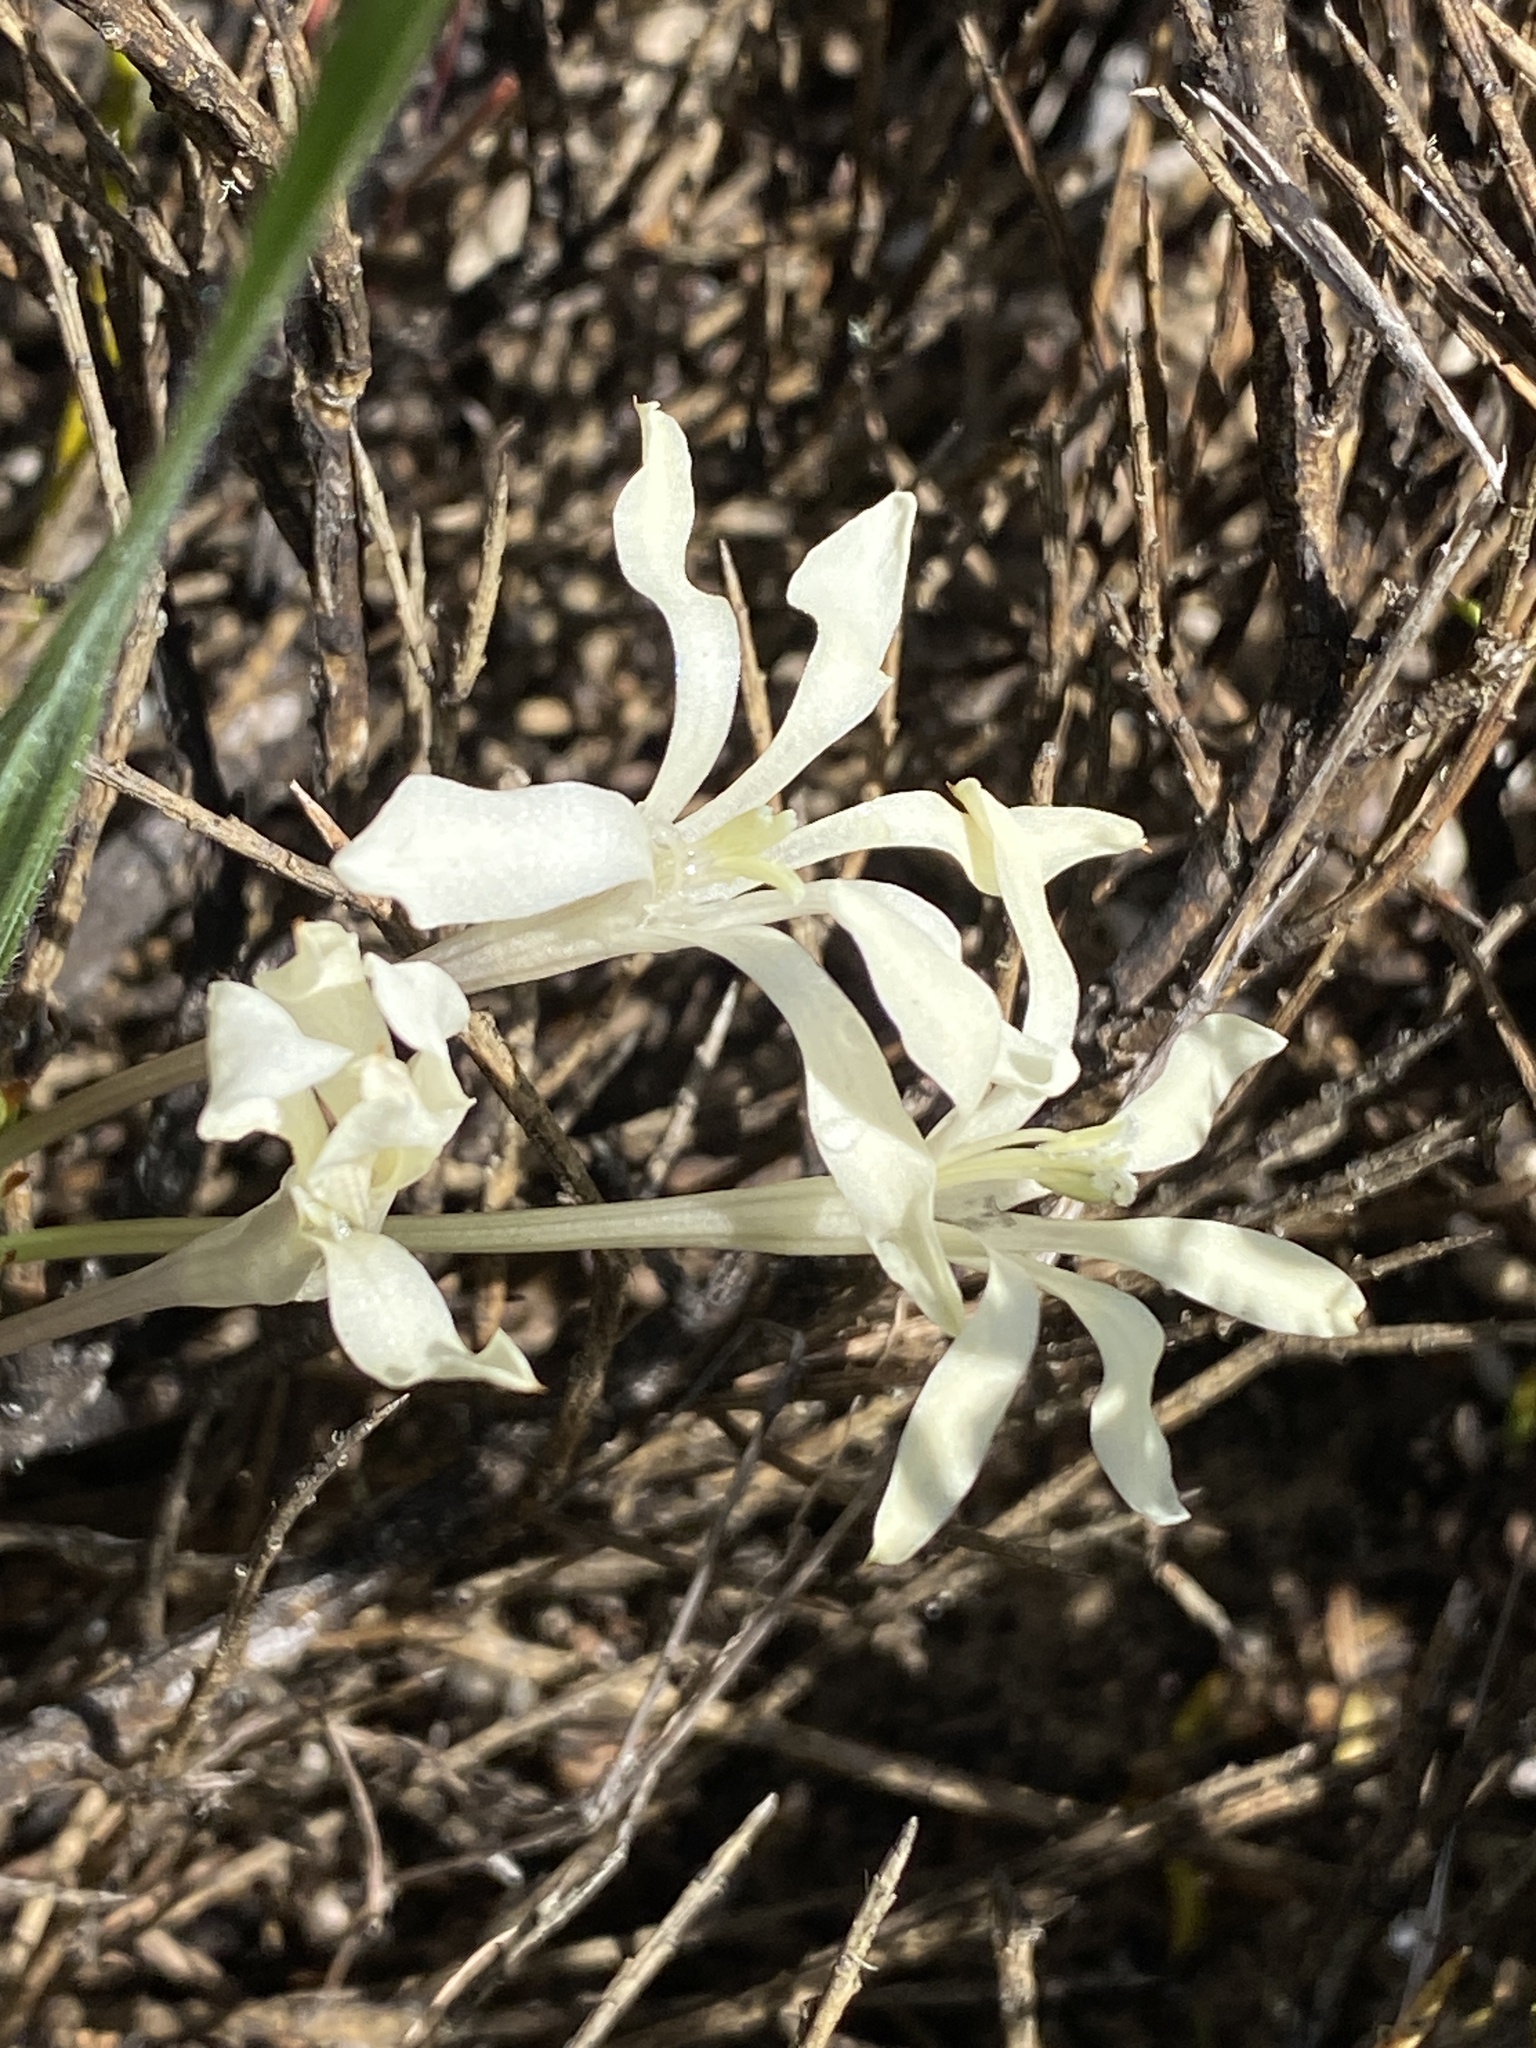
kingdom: Plantae
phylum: Tracheophyta
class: Liliopsida
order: Asparagales
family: Iridaceae
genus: Babiana
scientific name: Babiana tubiflora
